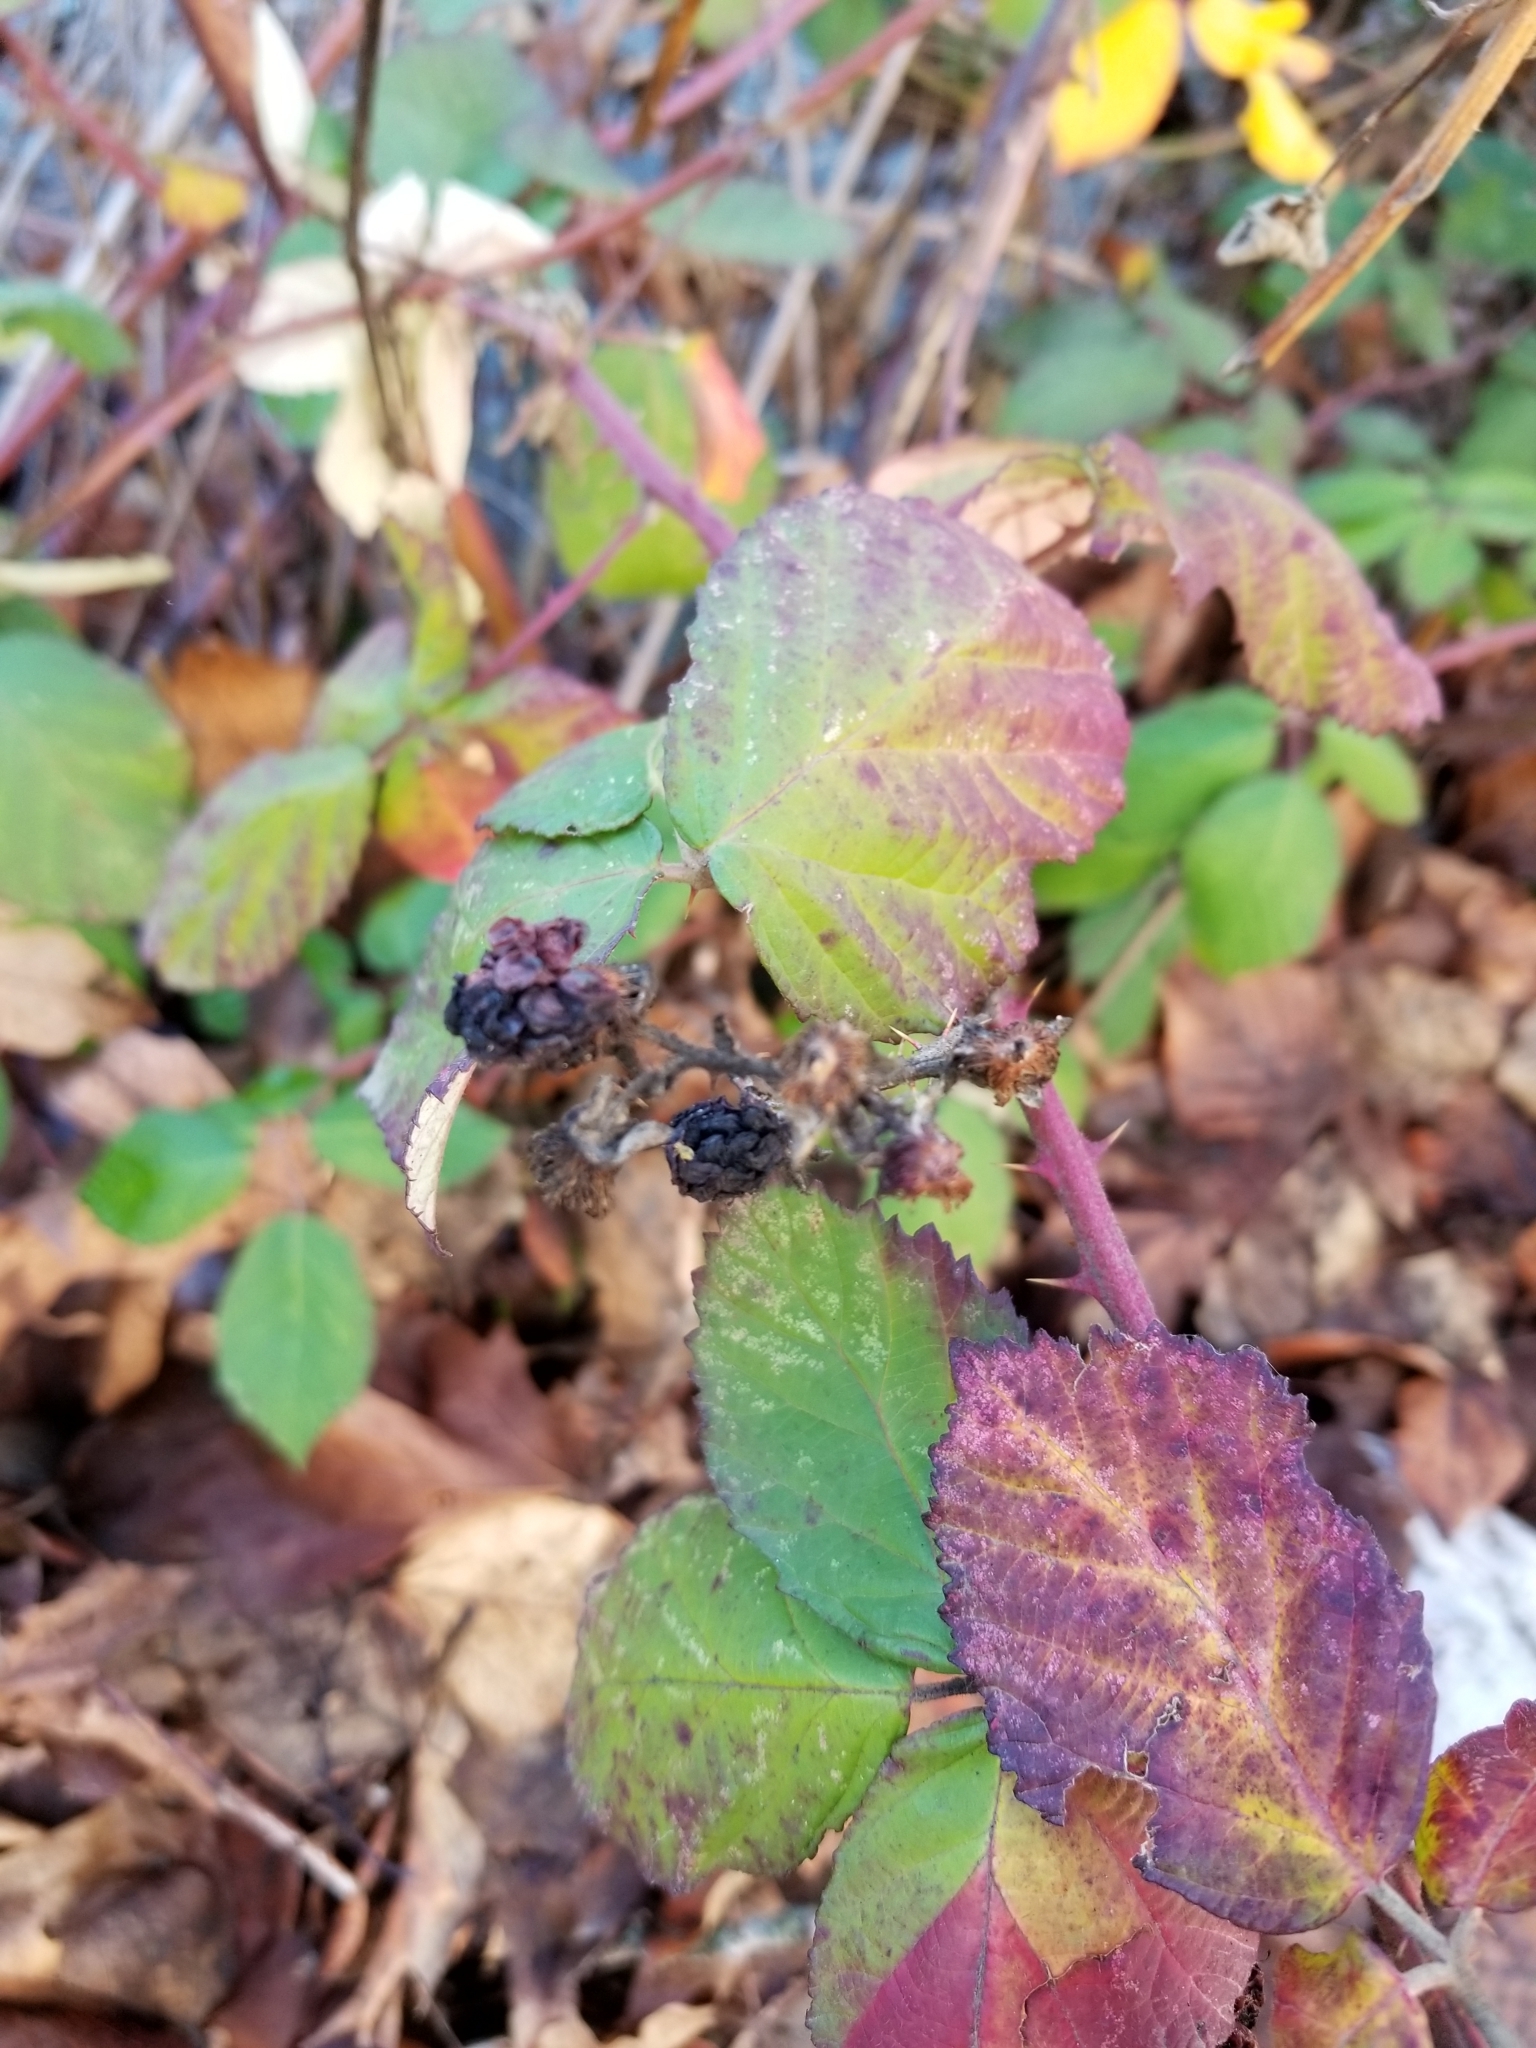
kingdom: Plantae
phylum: Tracheophyta
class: Magnoliopsida
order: Rosales
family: Rosaceae
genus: Rubus
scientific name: Rubus armeniacus
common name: Himalayan blackberry
